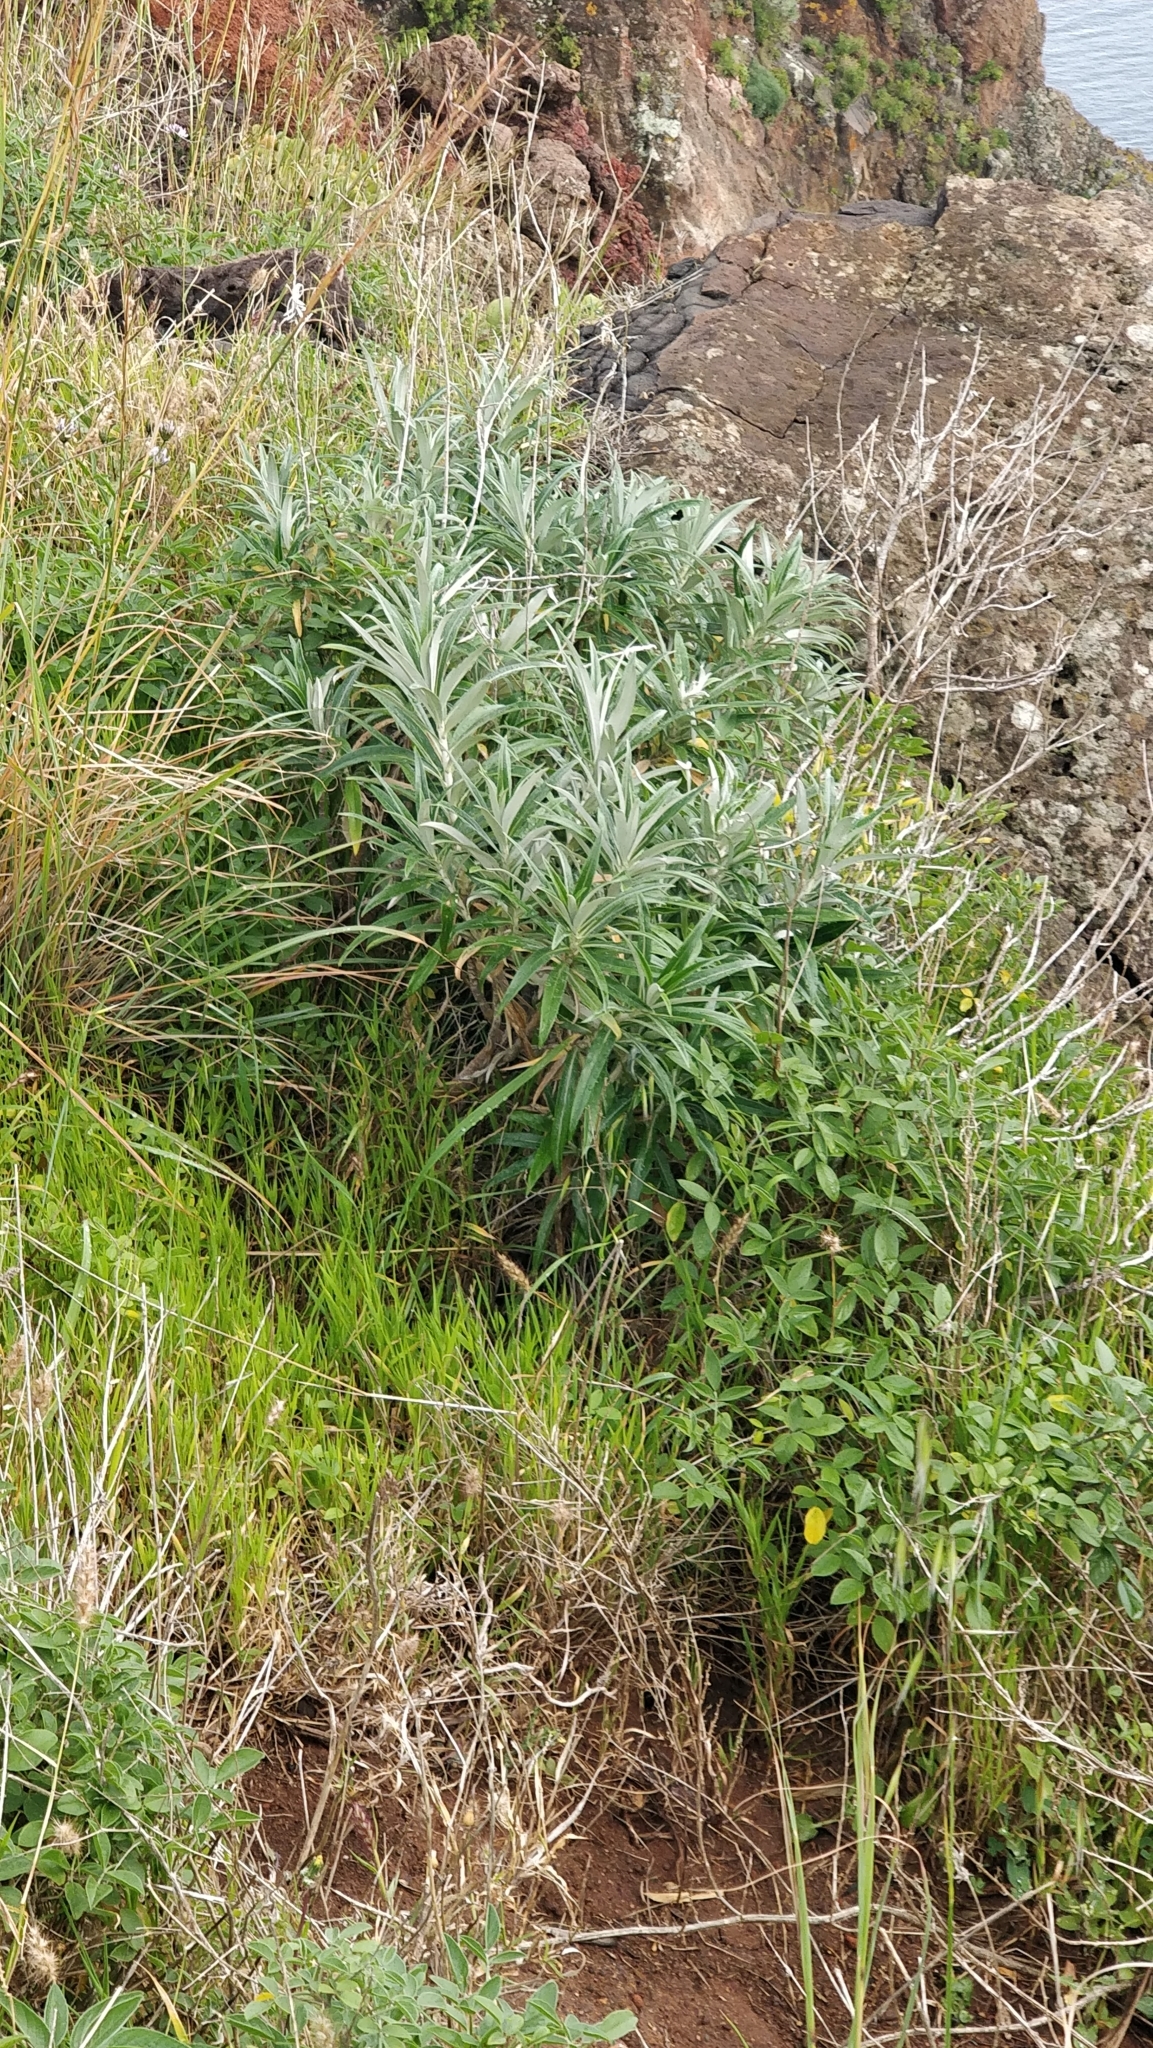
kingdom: Plantae
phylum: Tracheophyta
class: Magnoliopsida
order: Asterales
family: Asteraceae
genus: Carlina
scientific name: Carlina salicifolia
